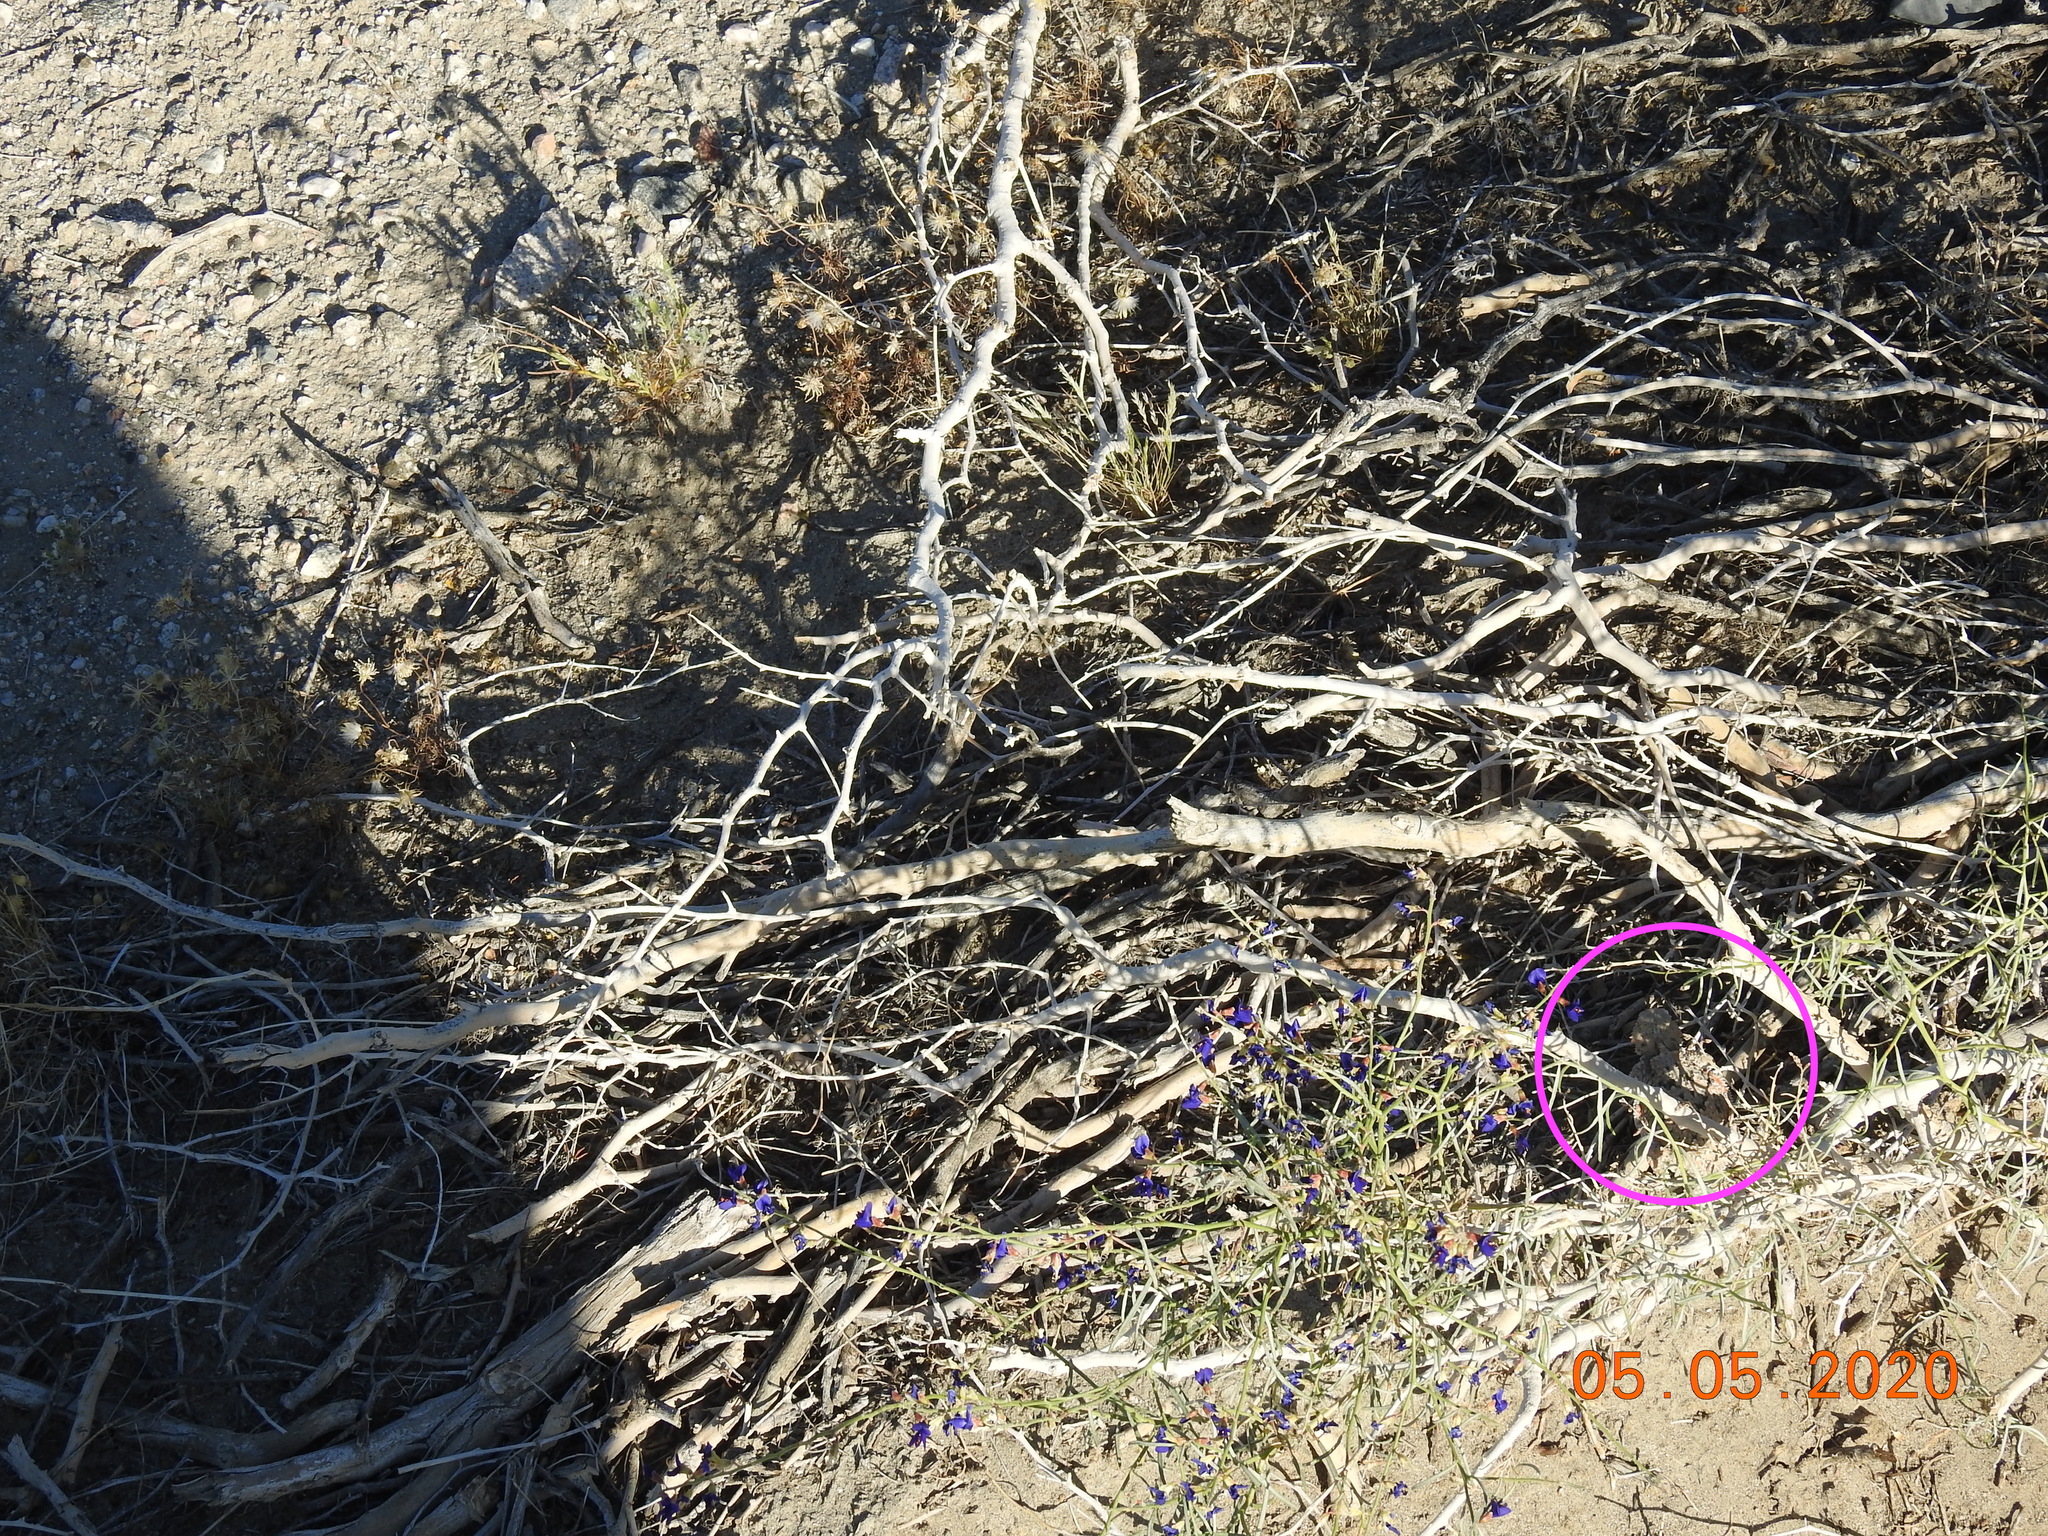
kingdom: Animalia
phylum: Chordata
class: Squamata
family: Phrynosomatidae
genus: Phrynosoma
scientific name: Phrynosoma platyrhinos
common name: Desert horned lizard
